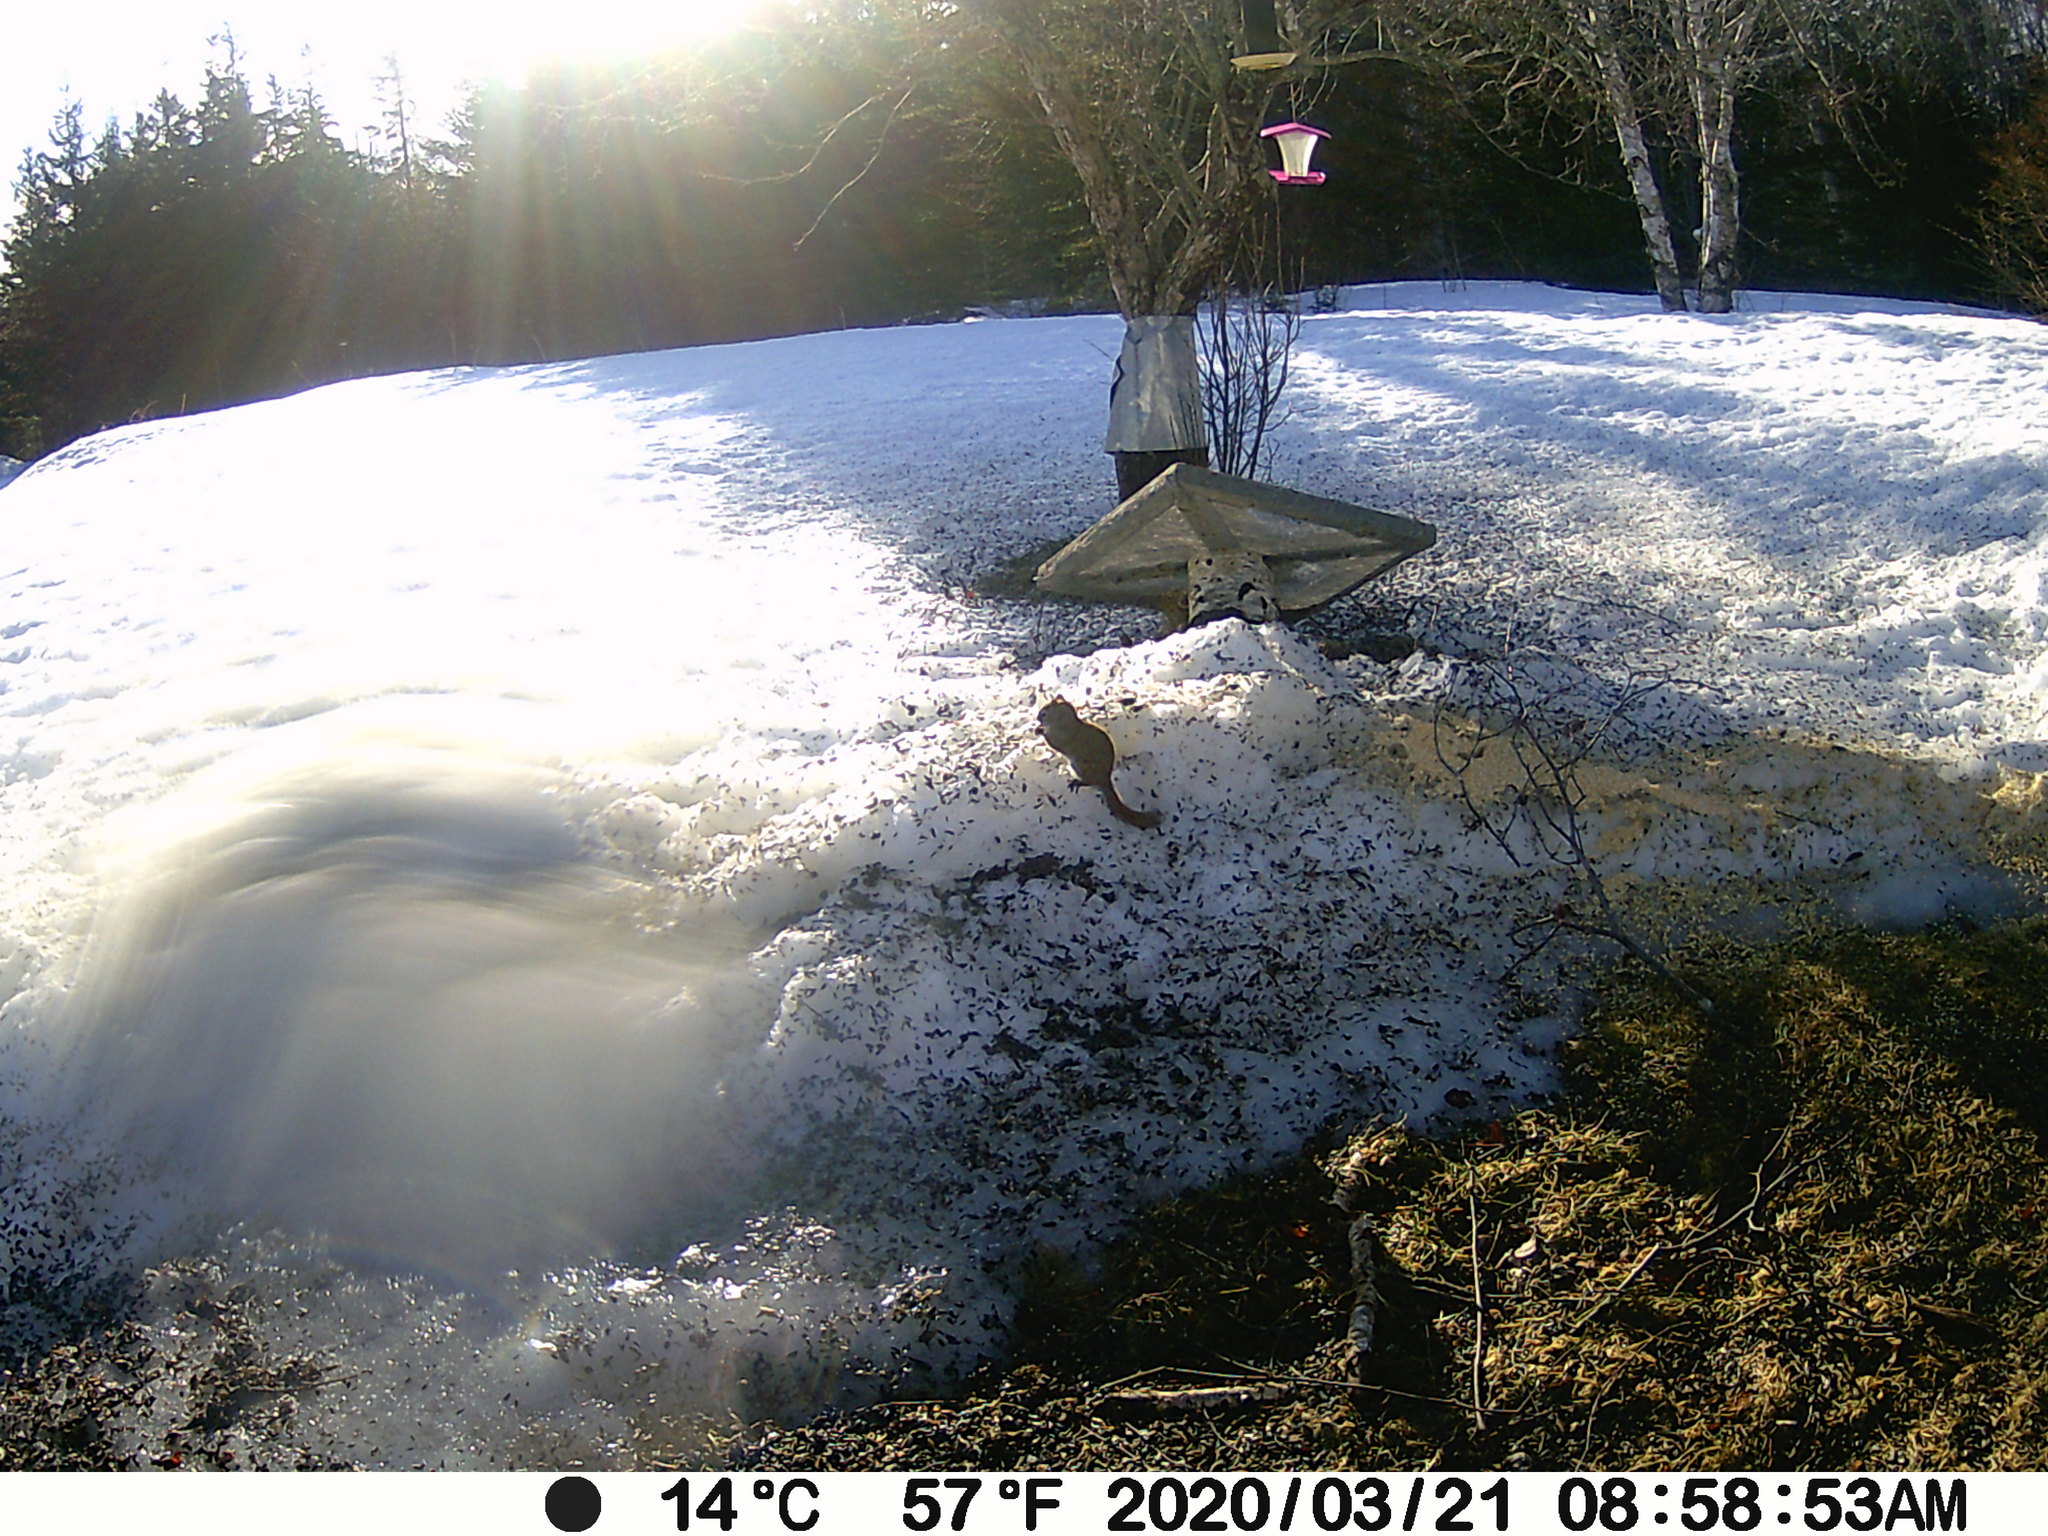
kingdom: Animalia
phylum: Chordata
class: Mammalia
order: Rodentia
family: Sciuridae
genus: Tamiasciurus
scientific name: Tamiasciurus hudsonicus
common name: Red squirrel
